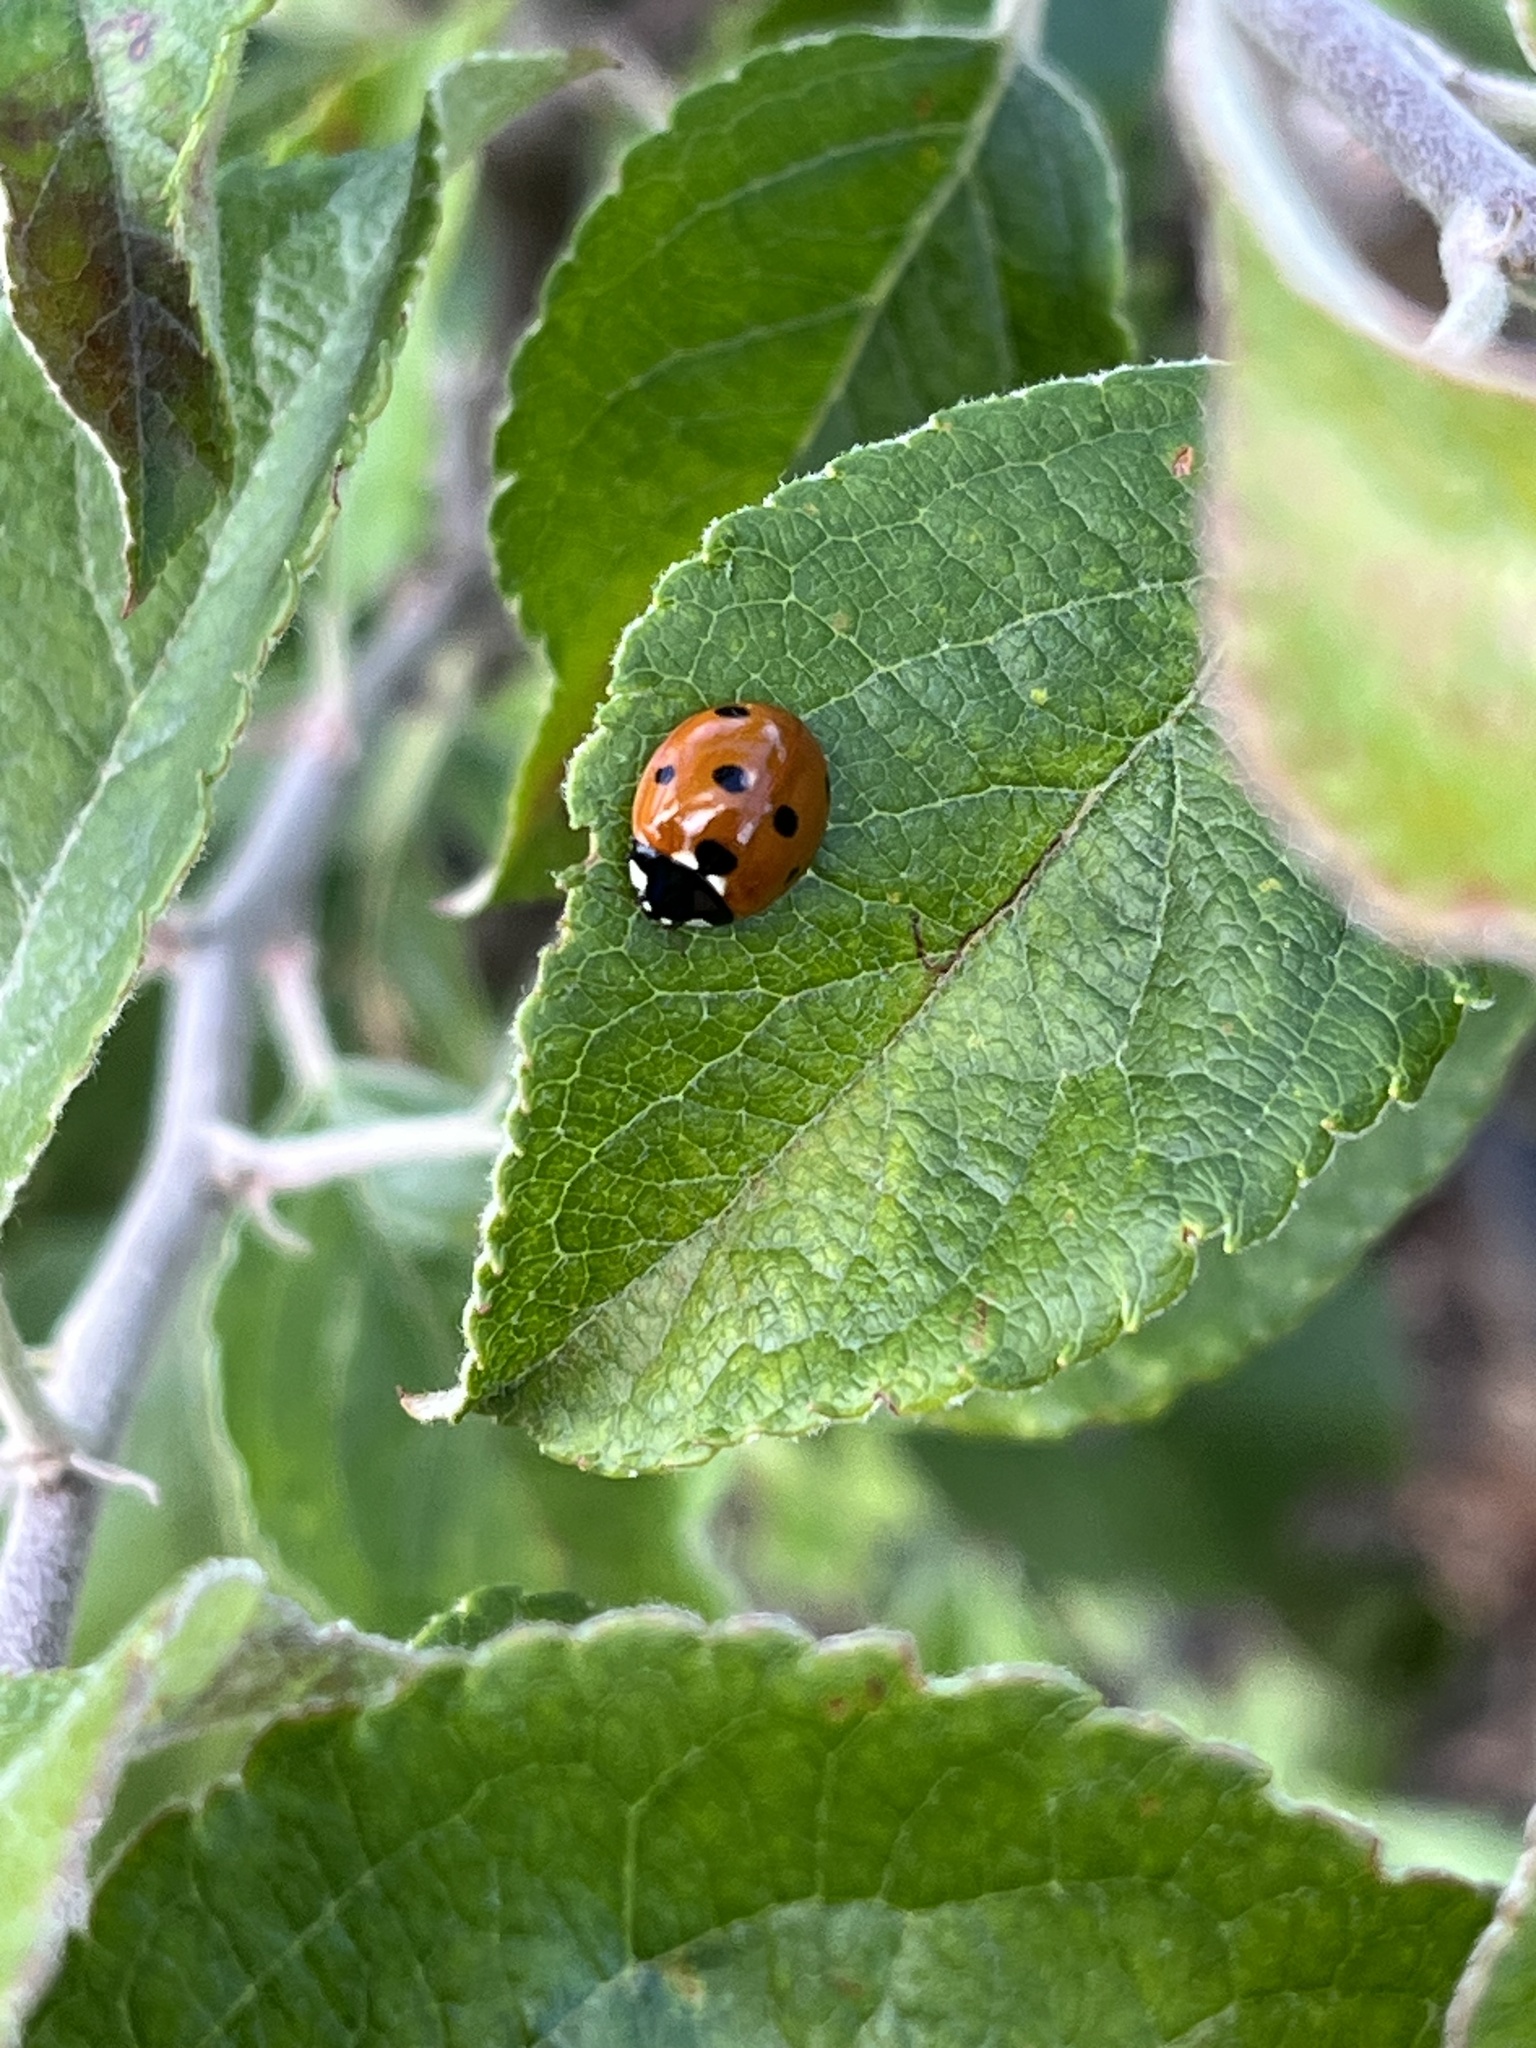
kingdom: Animalia
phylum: Arthropoda
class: Insecta
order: Coleoptera
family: Coccinellidae
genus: Coccinella
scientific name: Coccinella septempunctata
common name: Sevenspotted lady beetle
